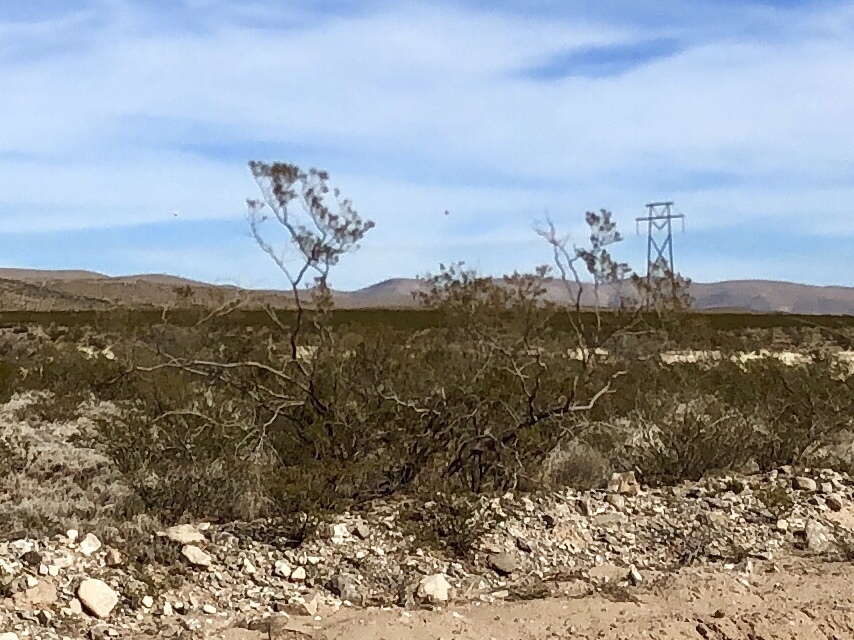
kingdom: Plantae
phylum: Tracheophyta
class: Magnoliopsida
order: Zygophyllales
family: Zygophyllaceae
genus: Larrea
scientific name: Larrea tridentata
